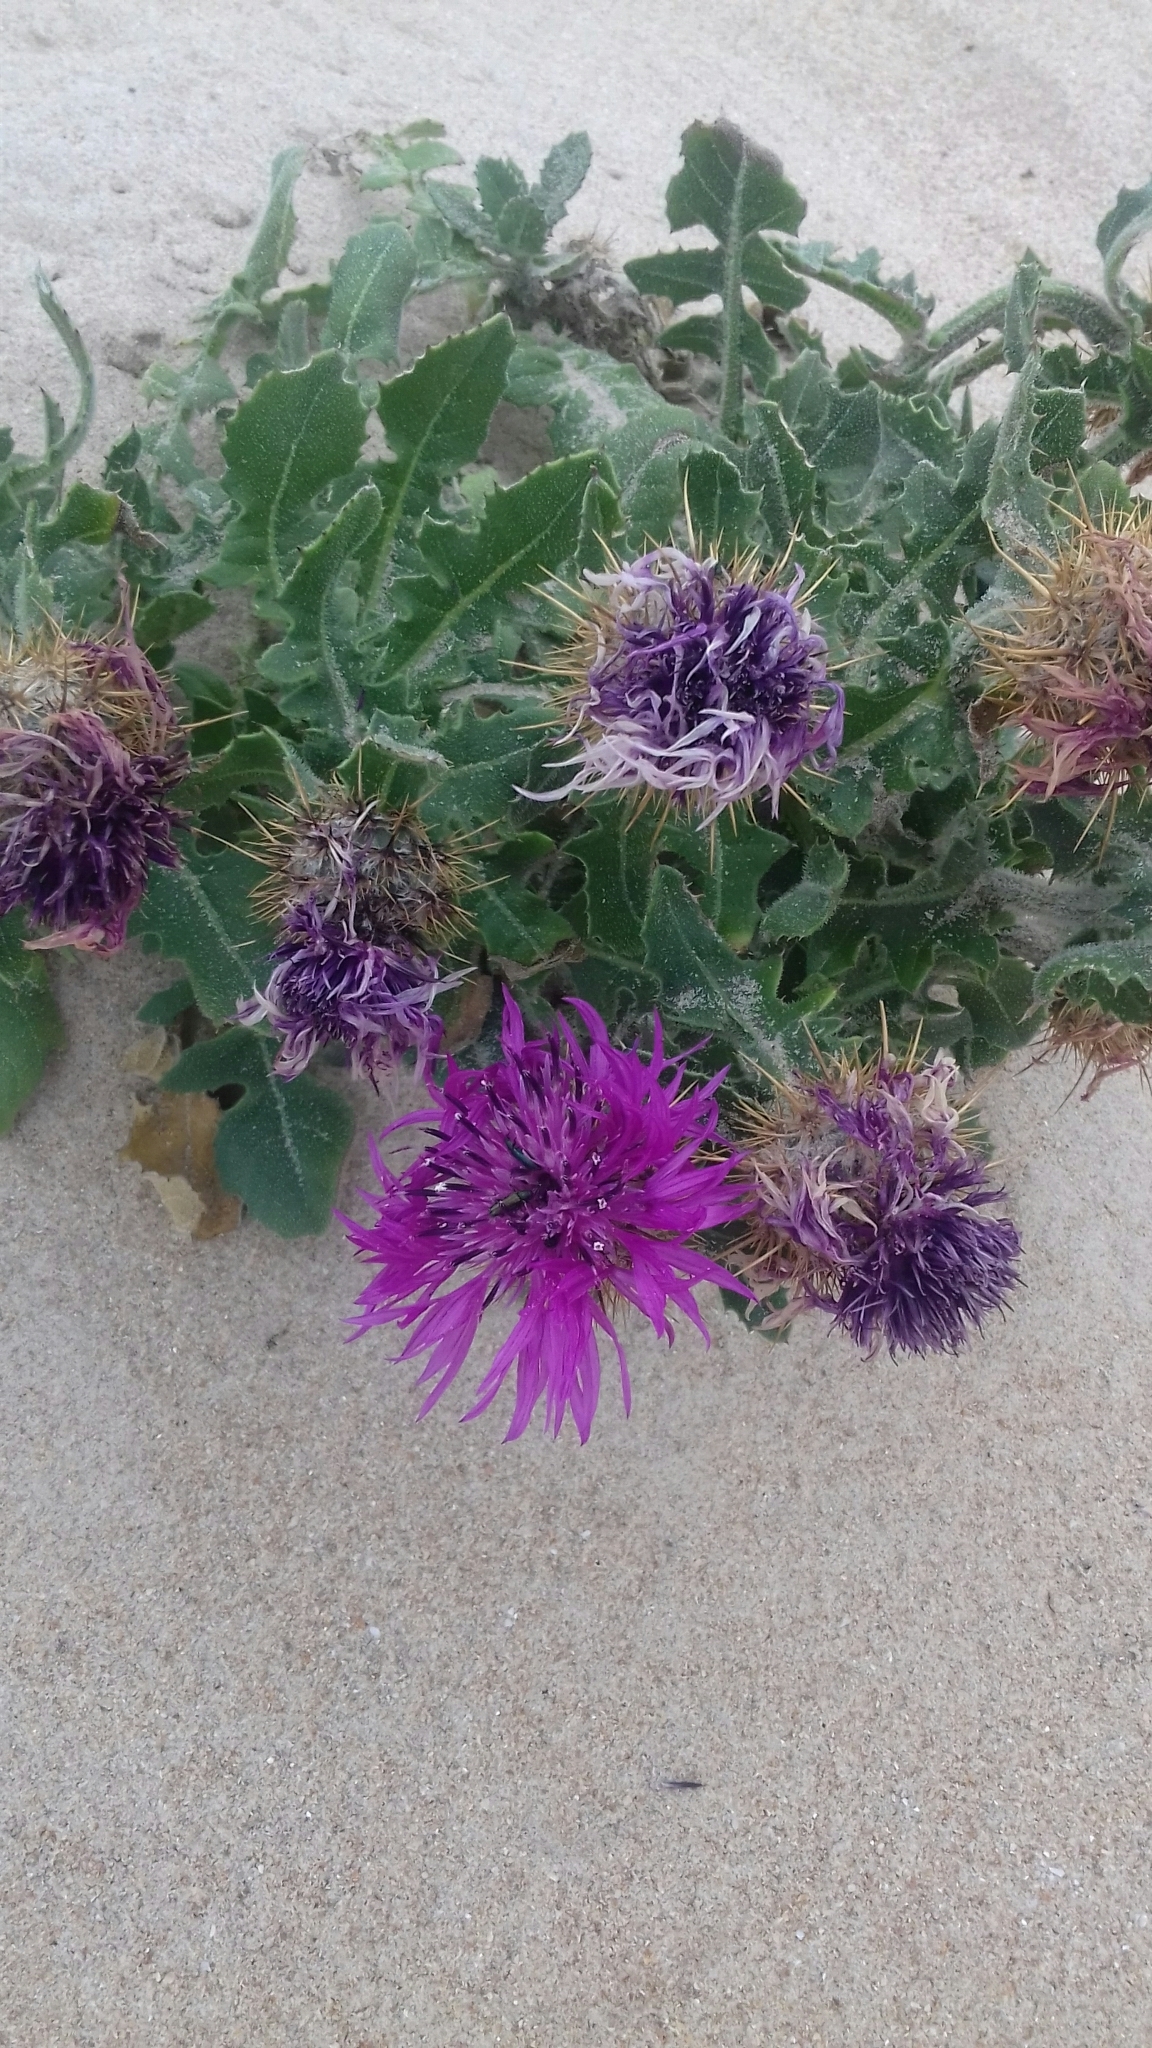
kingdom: Plantae
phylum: Tracheophyta
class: Magnoliopsida
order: Asterales
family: Asteraceae
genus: Centaurea
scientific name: Centaurea polyacantha
